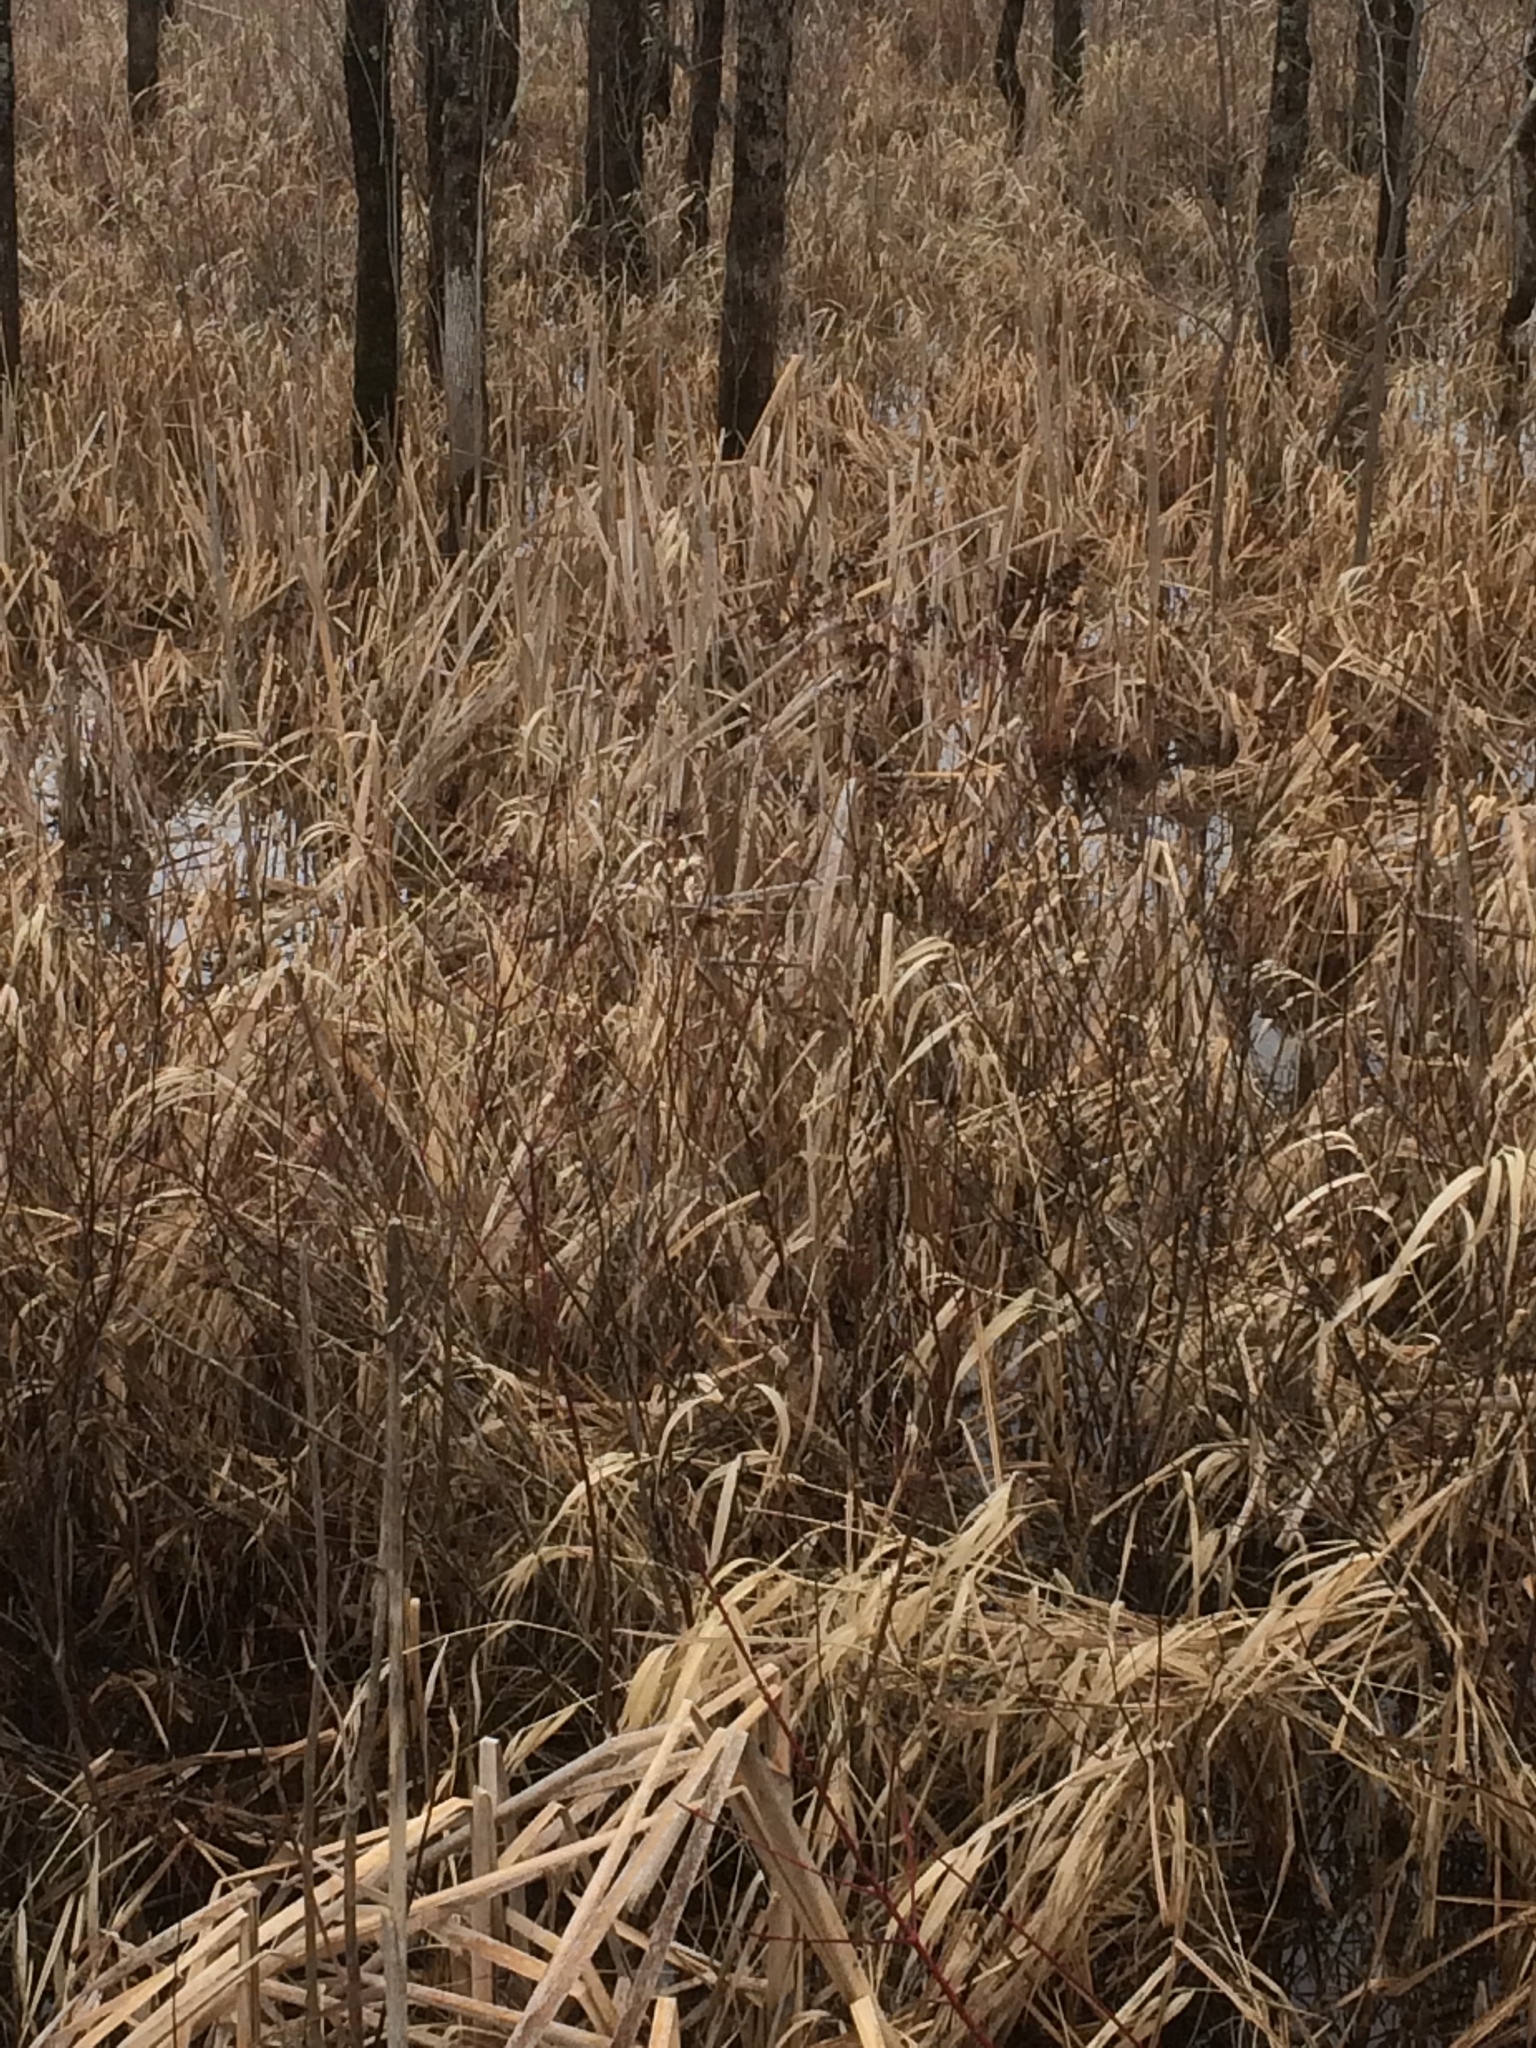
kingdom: Plantae
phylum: Tracheophyta
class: Magnoliopsida
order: Rosales
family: Rosaceae
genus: Spiraea
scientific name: Spiraea alba
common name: Pale bridewort
